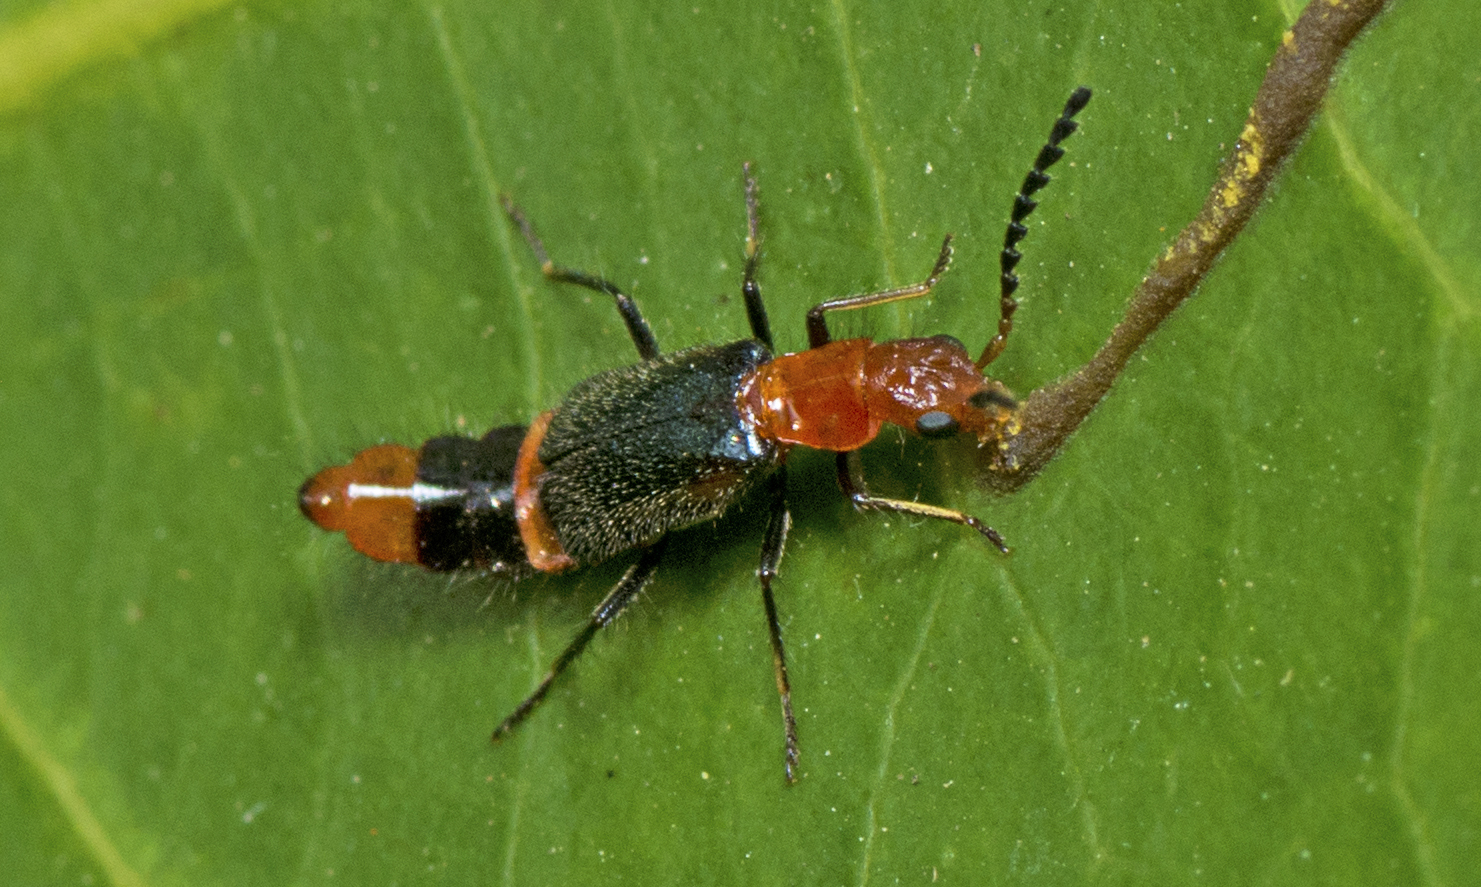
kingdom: Animalia
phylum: Arthropoda
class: Insecta
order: Coleoptera
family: Melyridae
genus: Carphurus
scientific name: Carphurus
